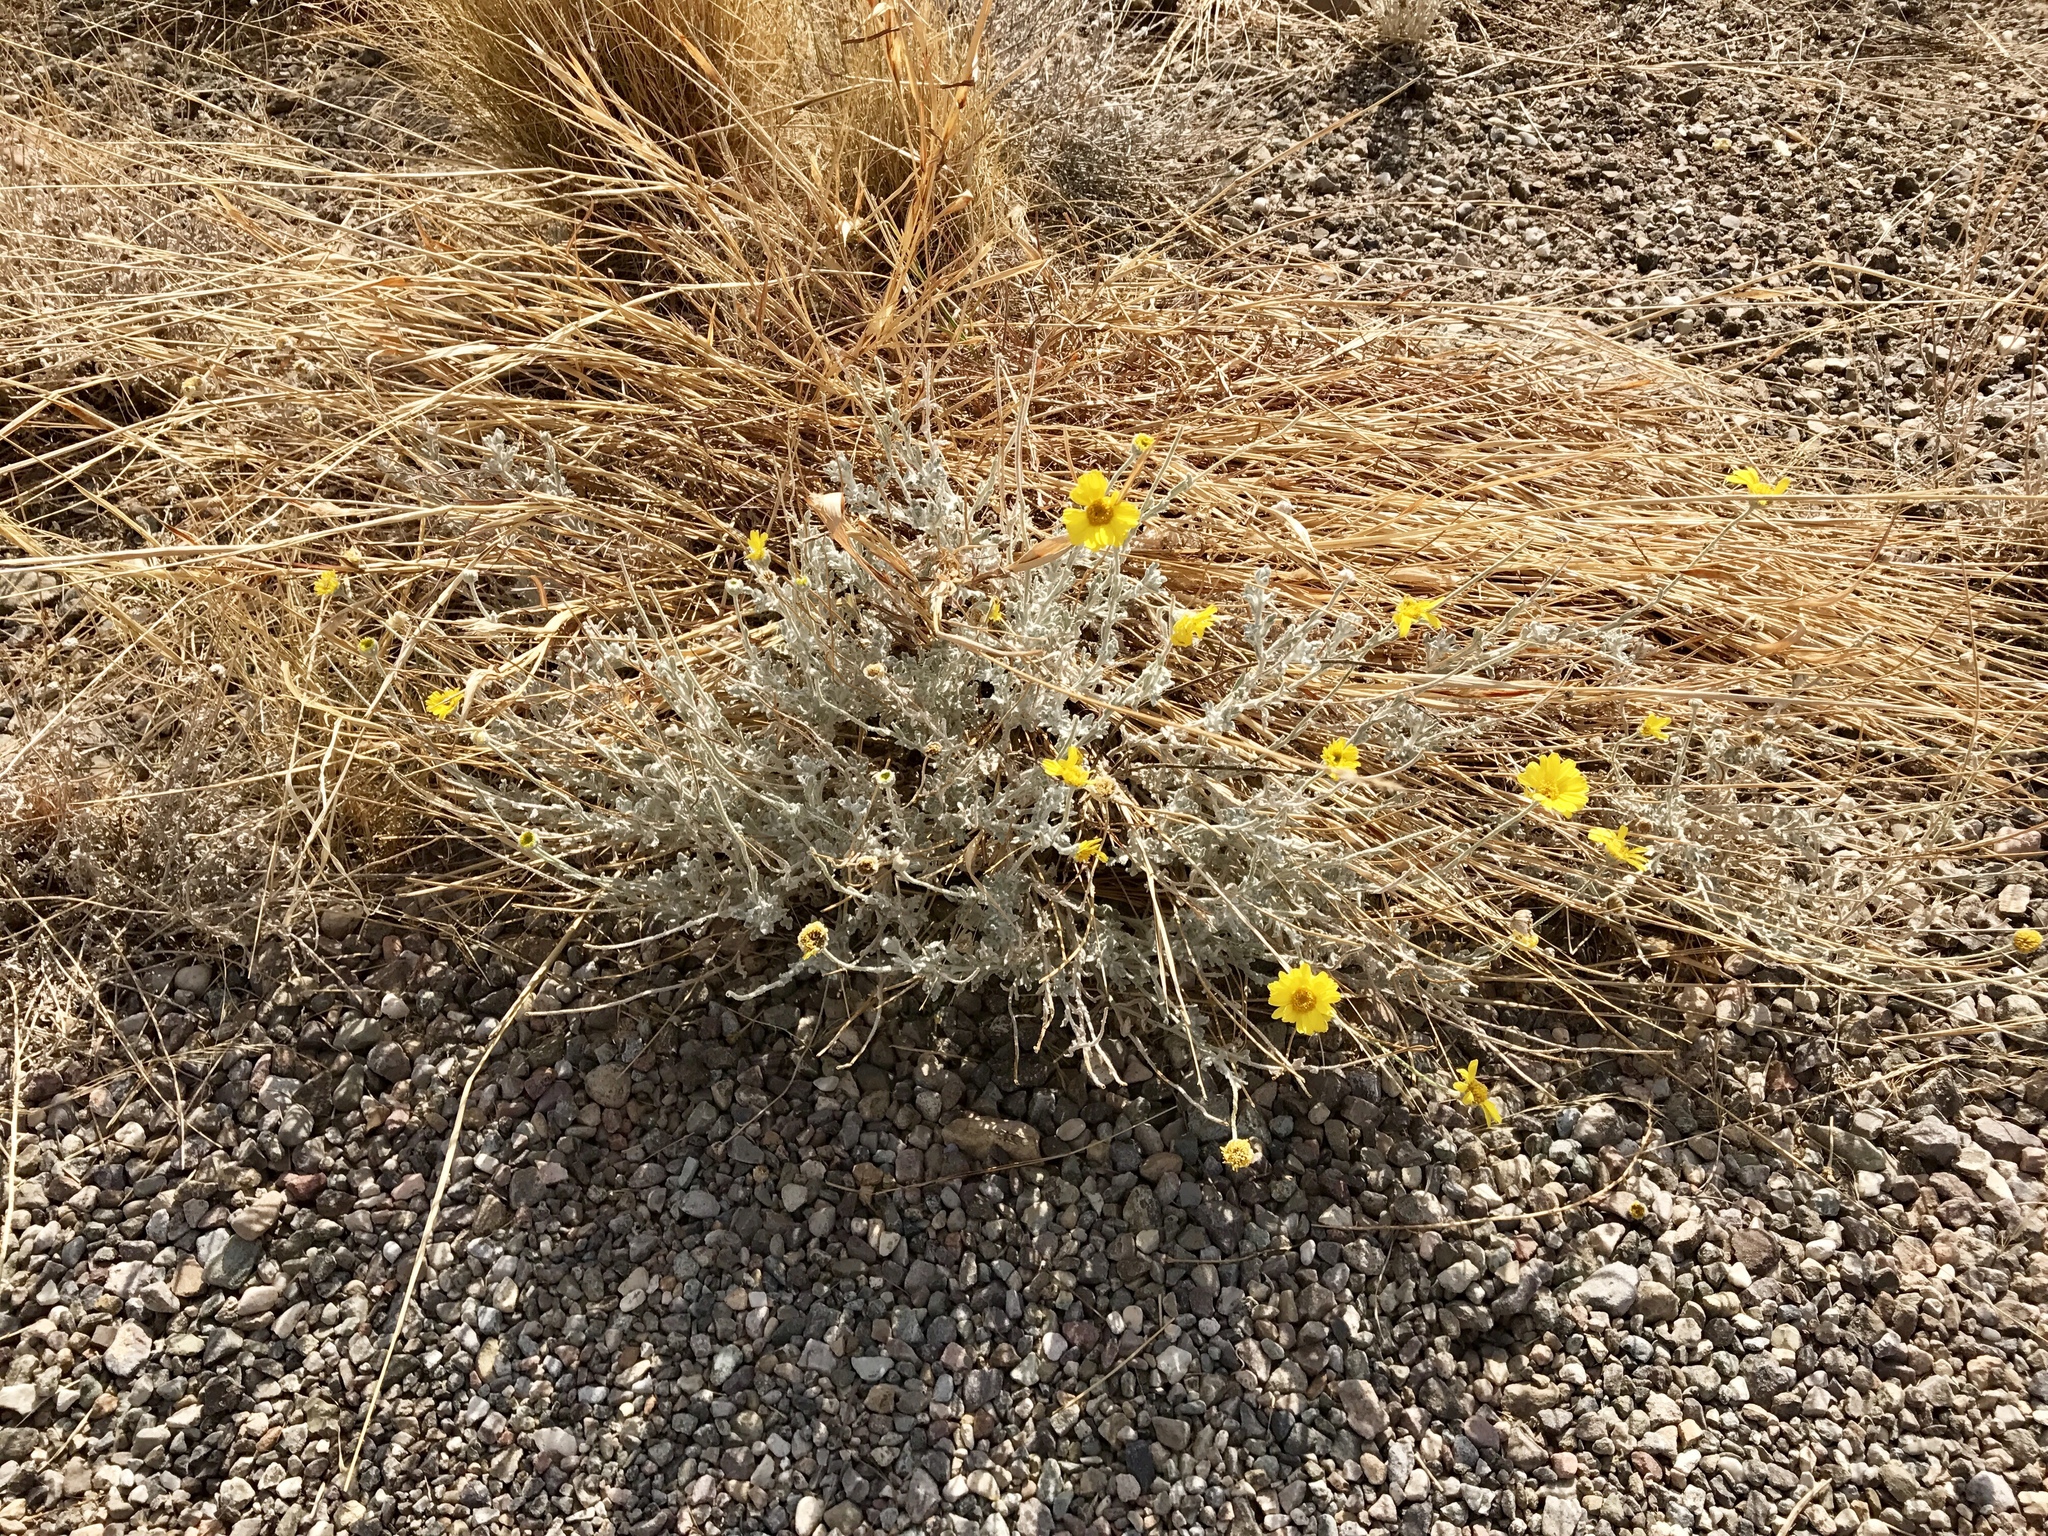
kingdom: Plantae
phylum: Tracheophyta
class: Magnoliopsida
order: Asterales
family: Asteraceae
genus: Baileya
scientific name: Baileya multiradiata
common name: Desert-marigold
